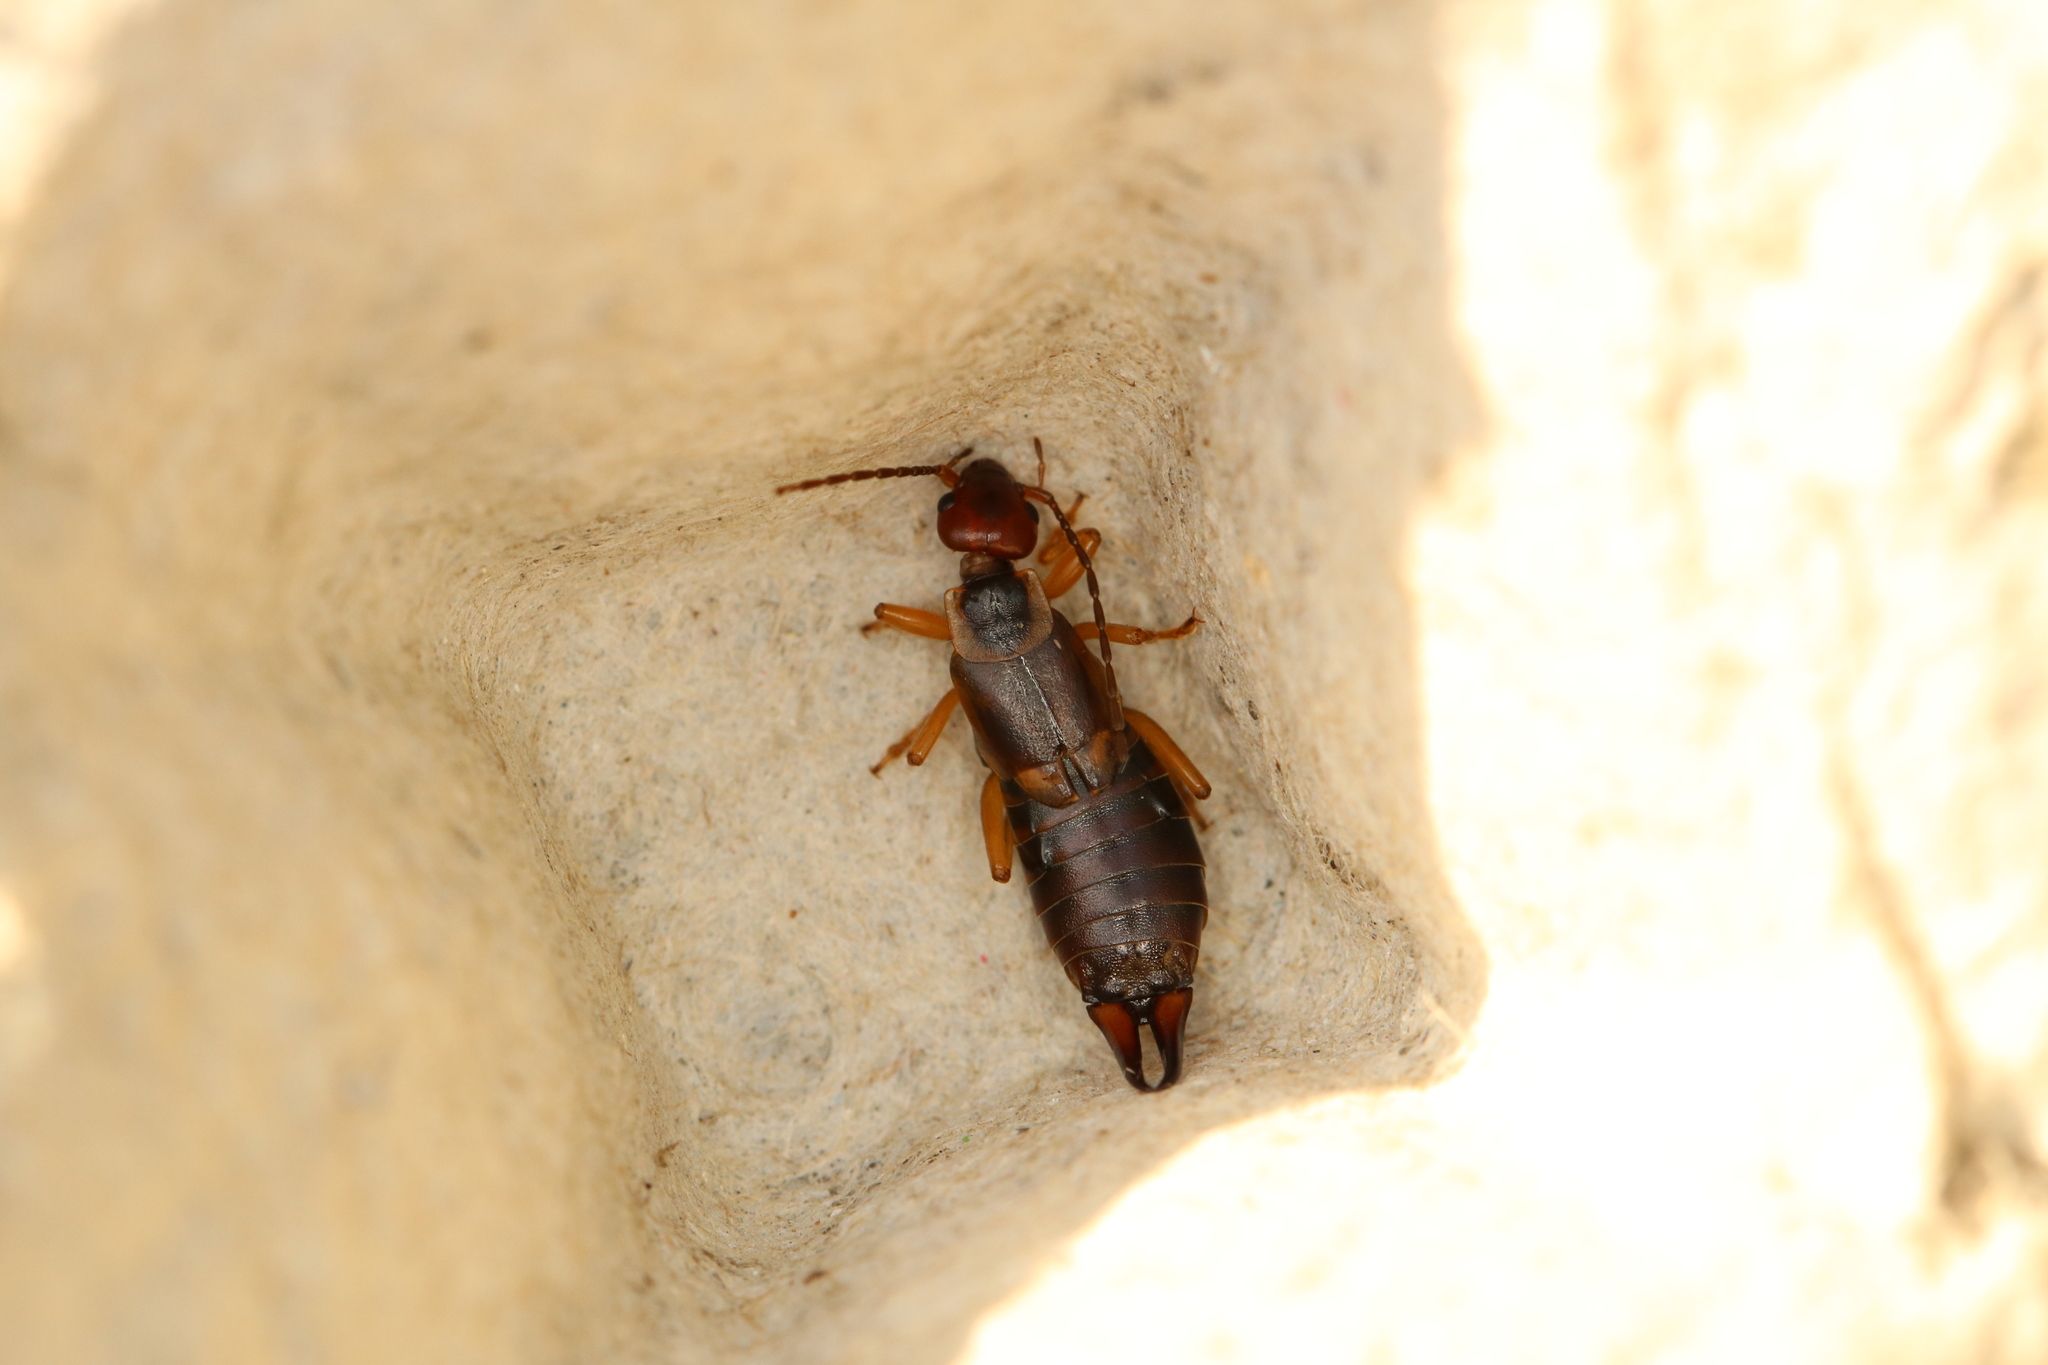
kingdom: Animalia
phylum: Arthropoda
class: Insecta
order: Dermaptera
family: Forficulidae
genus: Forficula
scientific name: Forficula
